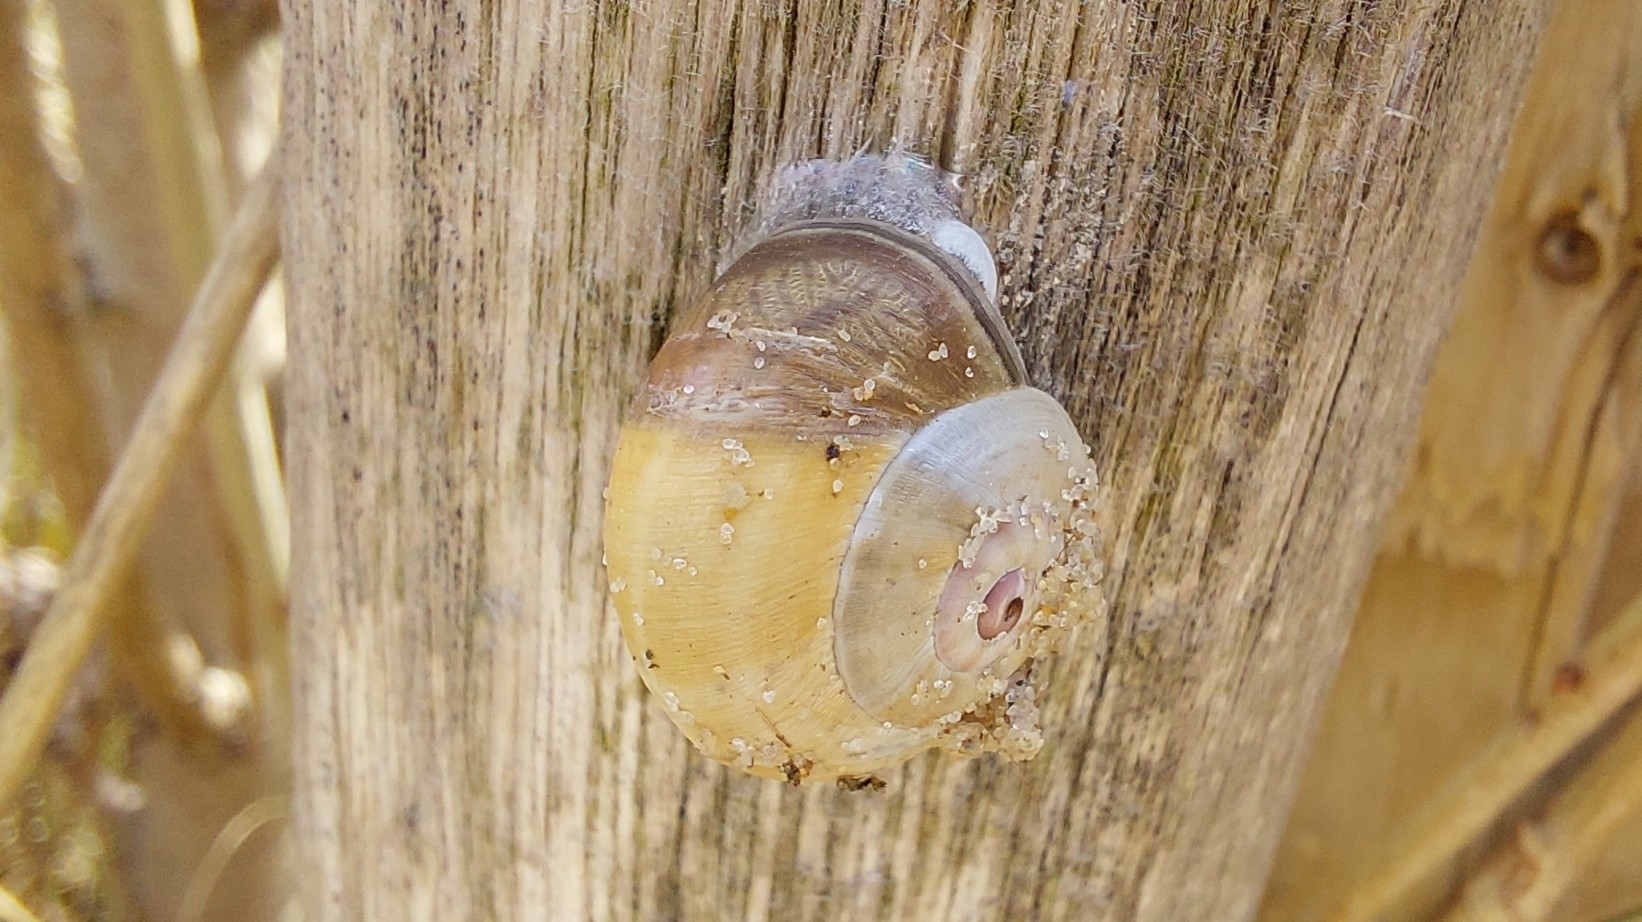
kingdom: Animalia
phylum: Mollusca
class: Gastropoda
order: Stylommatophora
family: Helicidae
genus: Theba
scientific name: Theba pisana
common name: White snail
